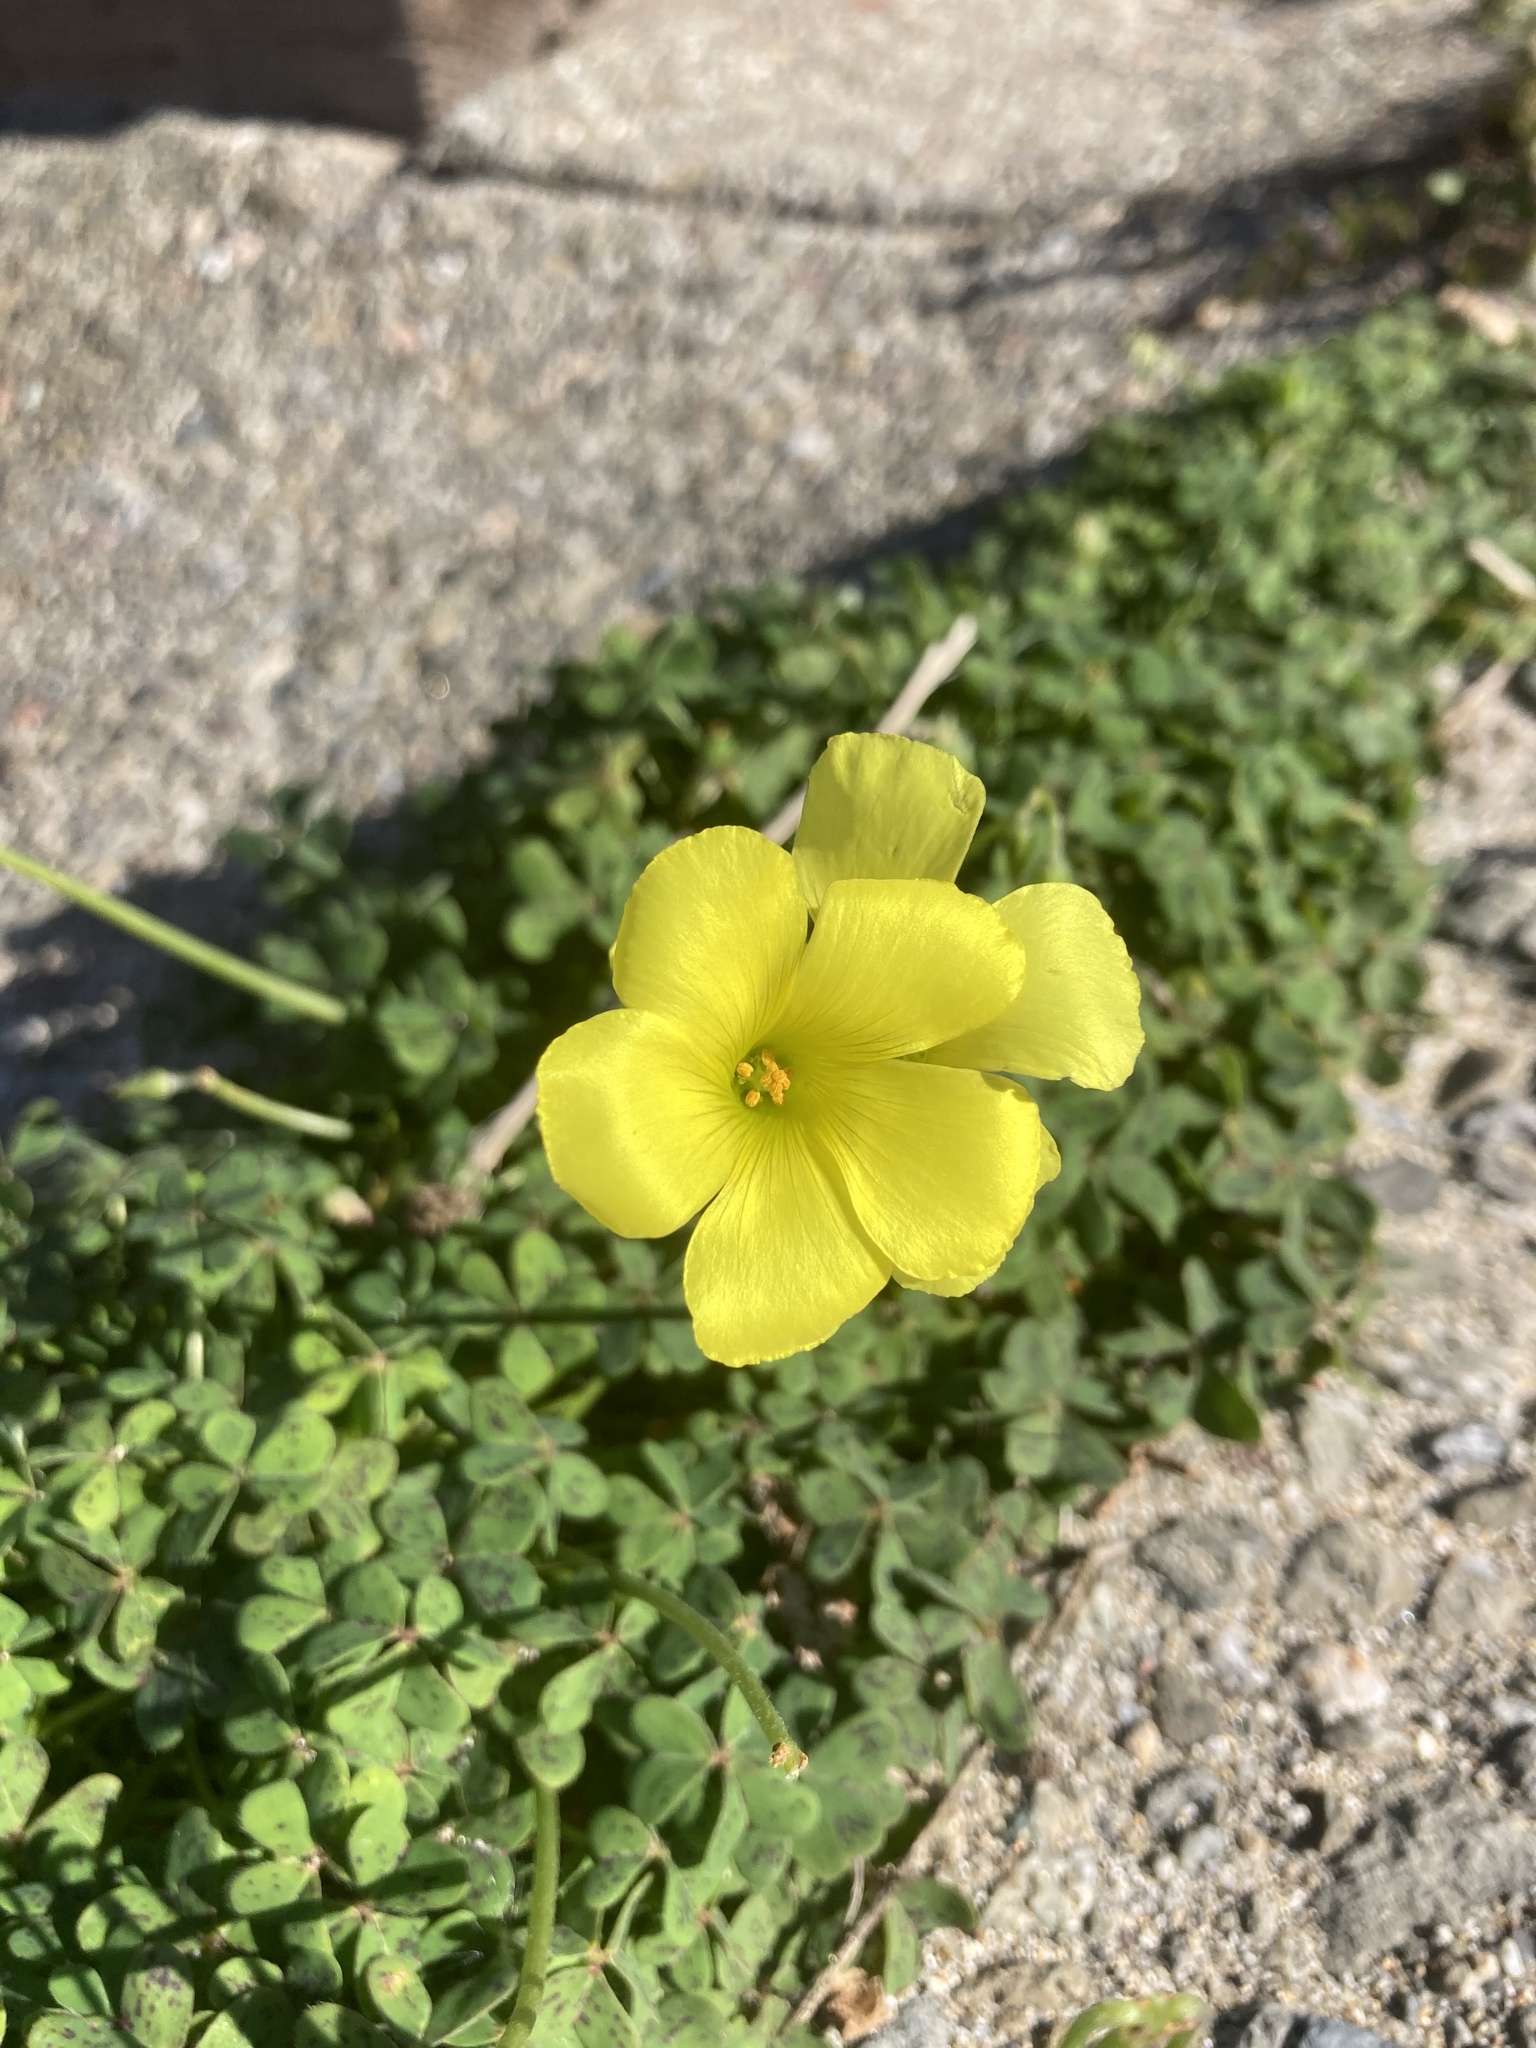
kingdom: Plantae
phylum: Tracheophyta
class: Magnoliopsida
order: Oxalidales
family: Oxalidaceae
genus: Oxalis
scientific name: Oxalis pes-caprae
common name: Bermuda-buttercup
